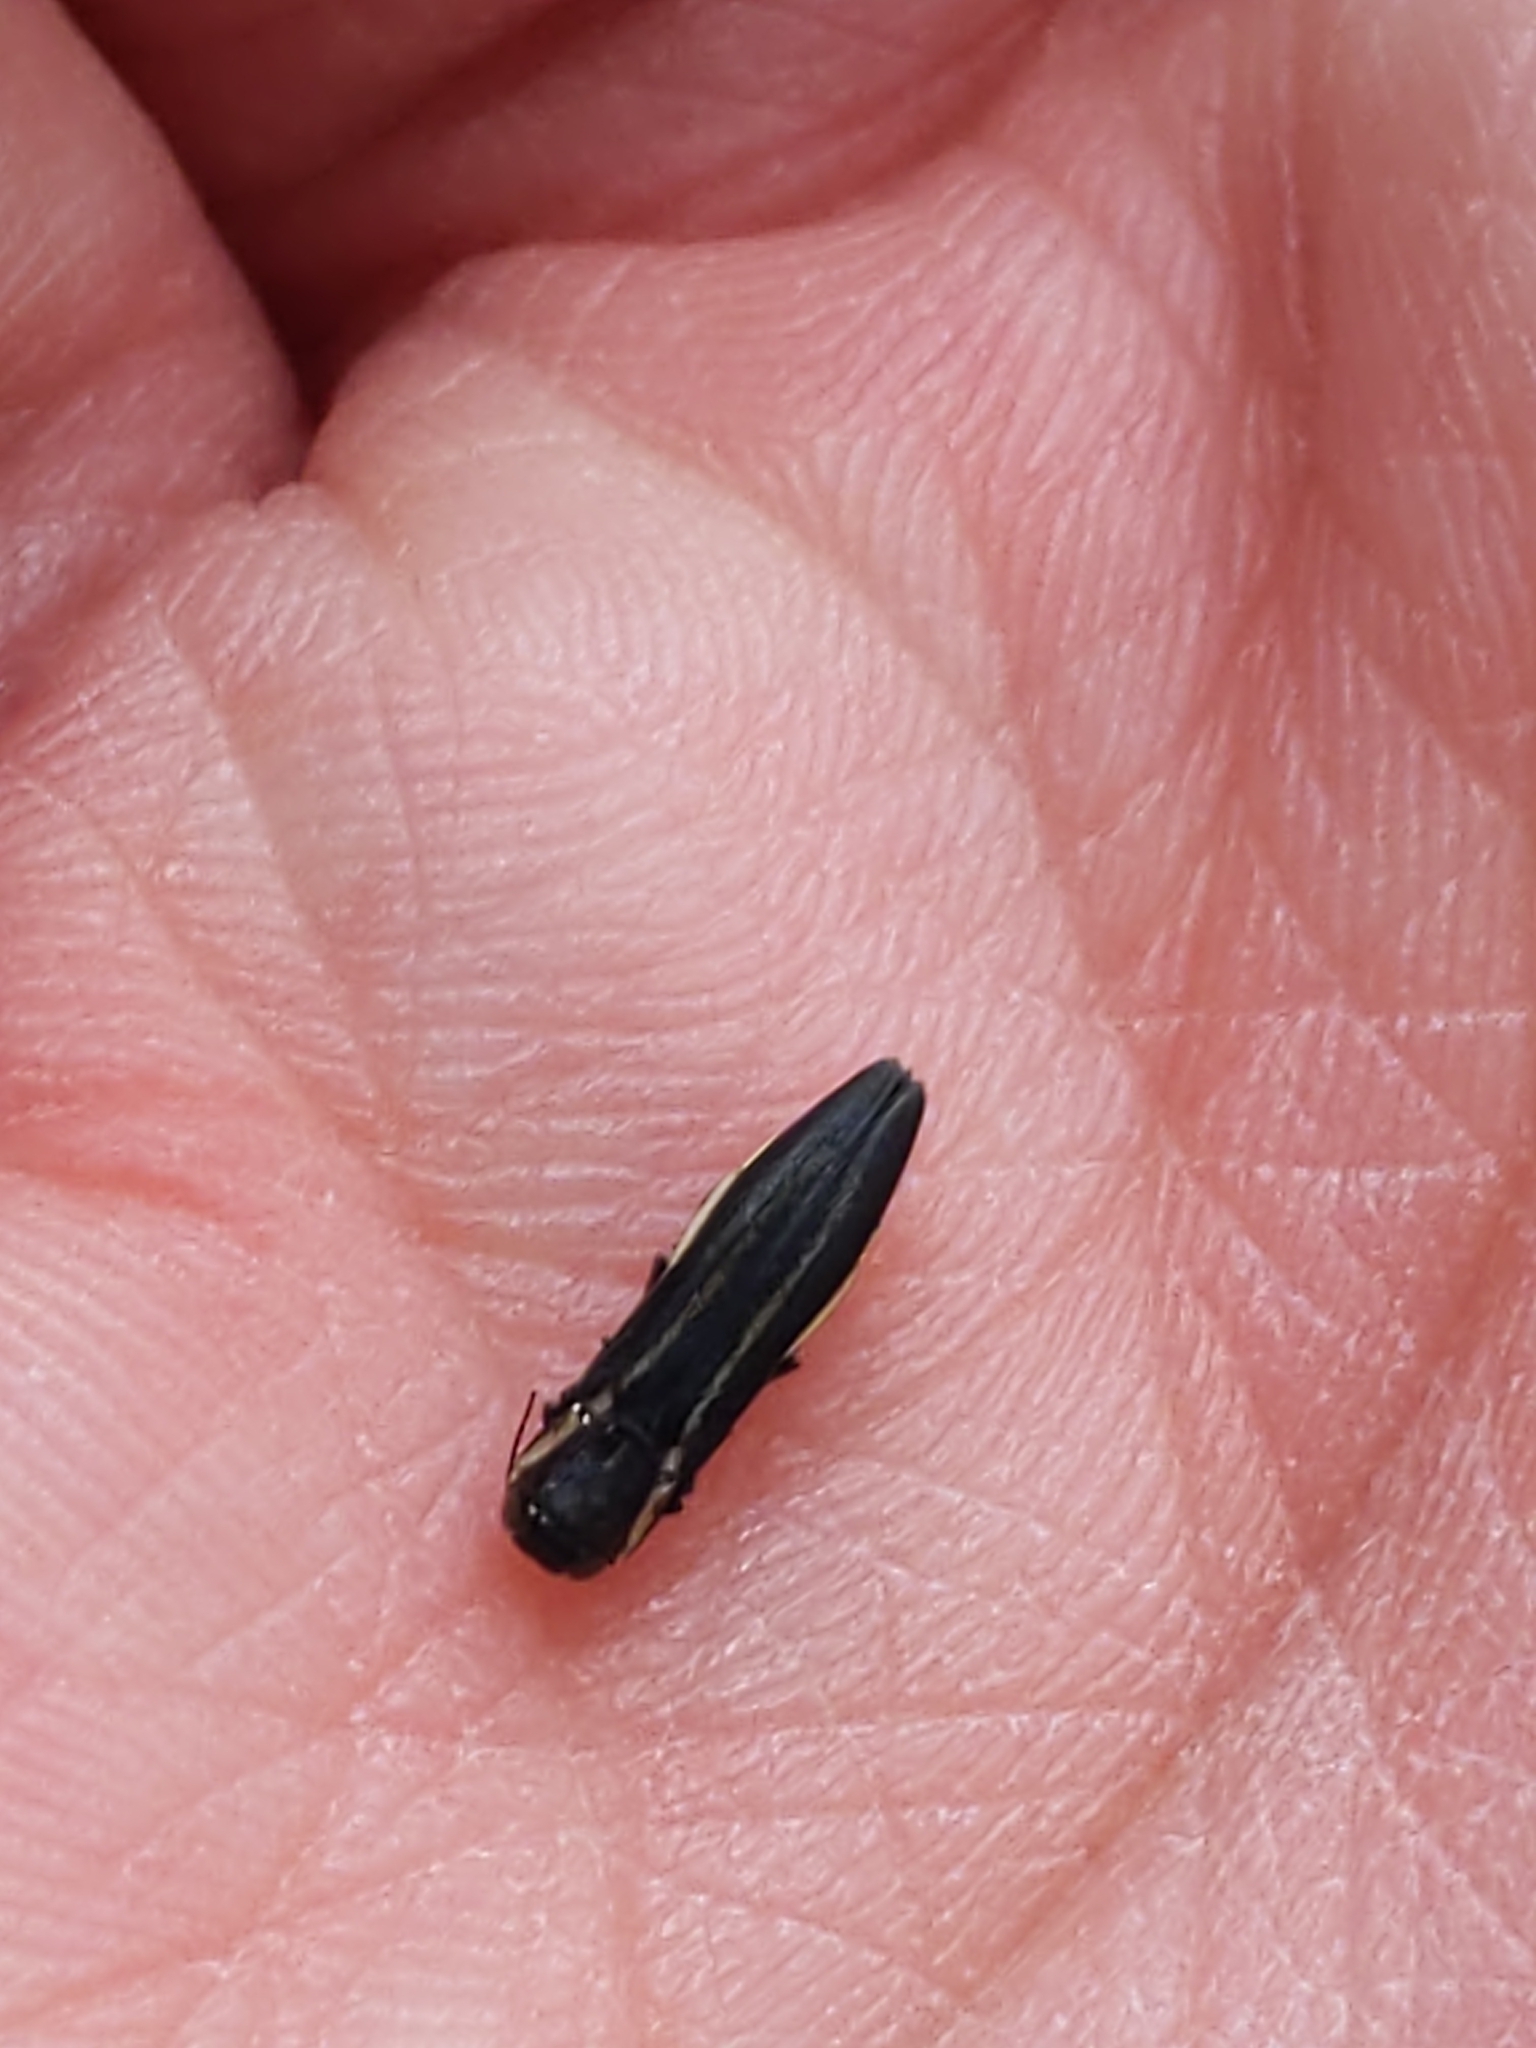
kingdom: Animalia
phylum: Arthropoda
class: Insecta
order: Coleoptera
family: Buprestidae
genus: Agrilus
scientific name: Agrilus bilineatus
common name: Two-lined chestnut borer
